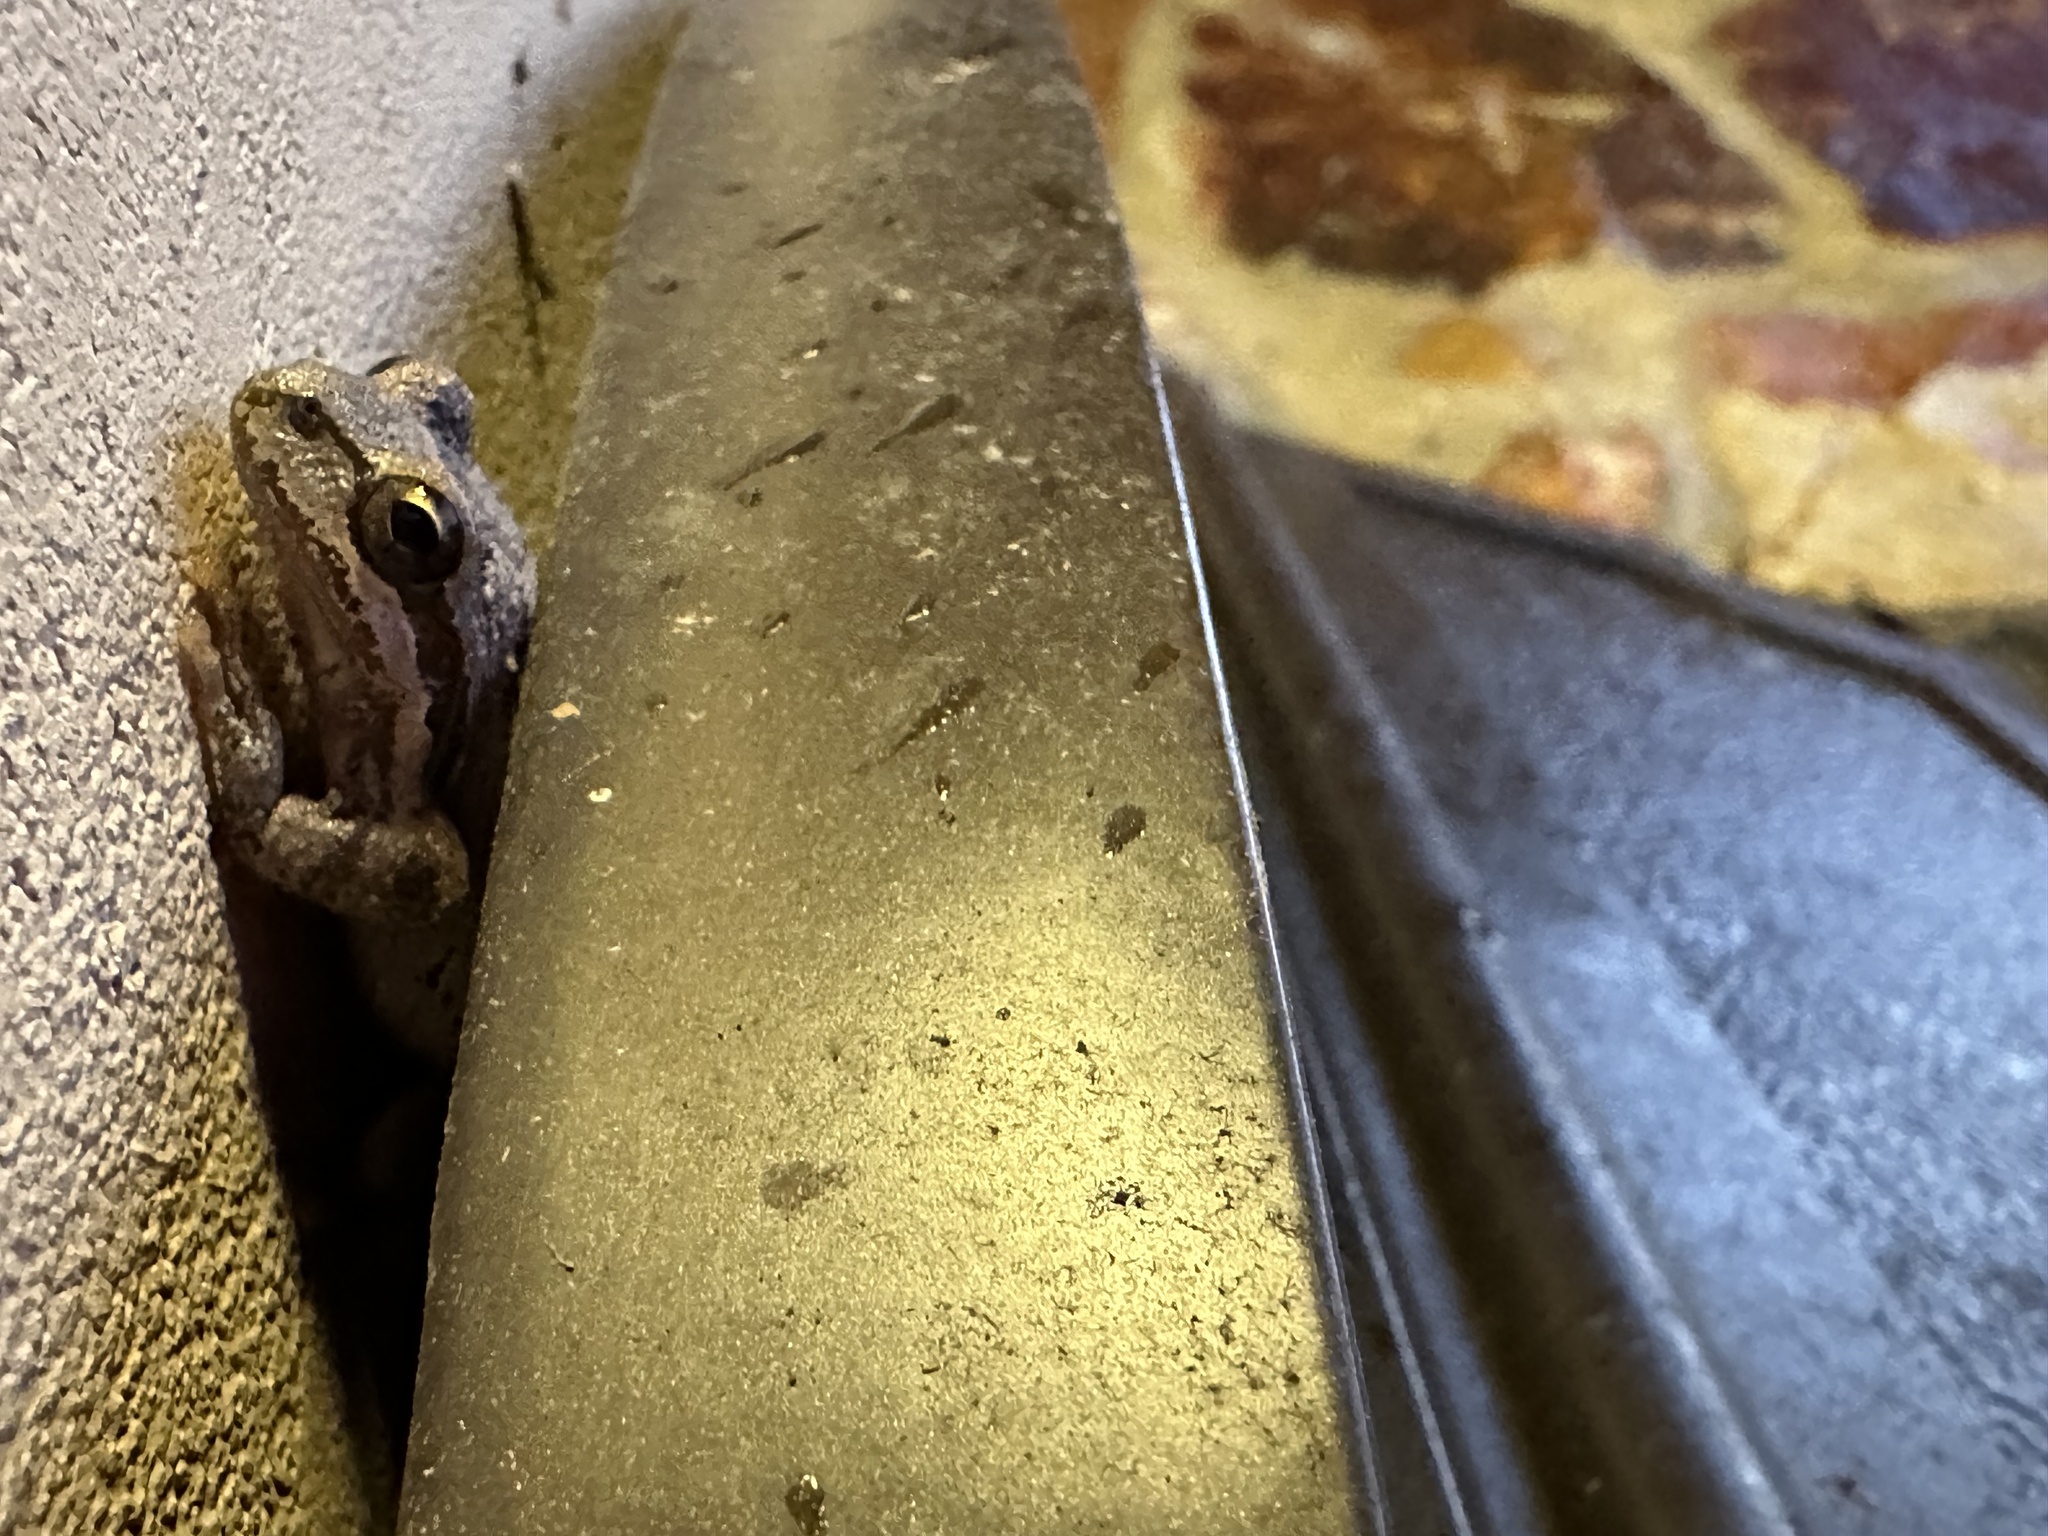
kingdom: Animalia
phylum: Chordata
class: Amphibia
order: Anura
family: Hylidae
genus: Pseudacris
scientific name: Pseudacris regilla
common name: Pacific chorus frog
